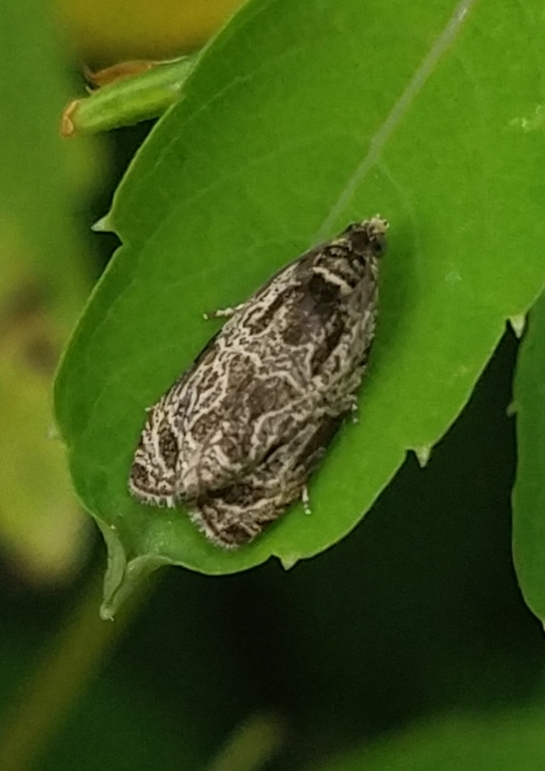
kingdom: Animalia
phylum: Arthropoda
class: Insecta
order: Lepidoptera
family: Tortricidae
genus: Olethreutes
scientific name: Olethreutes concinnana
